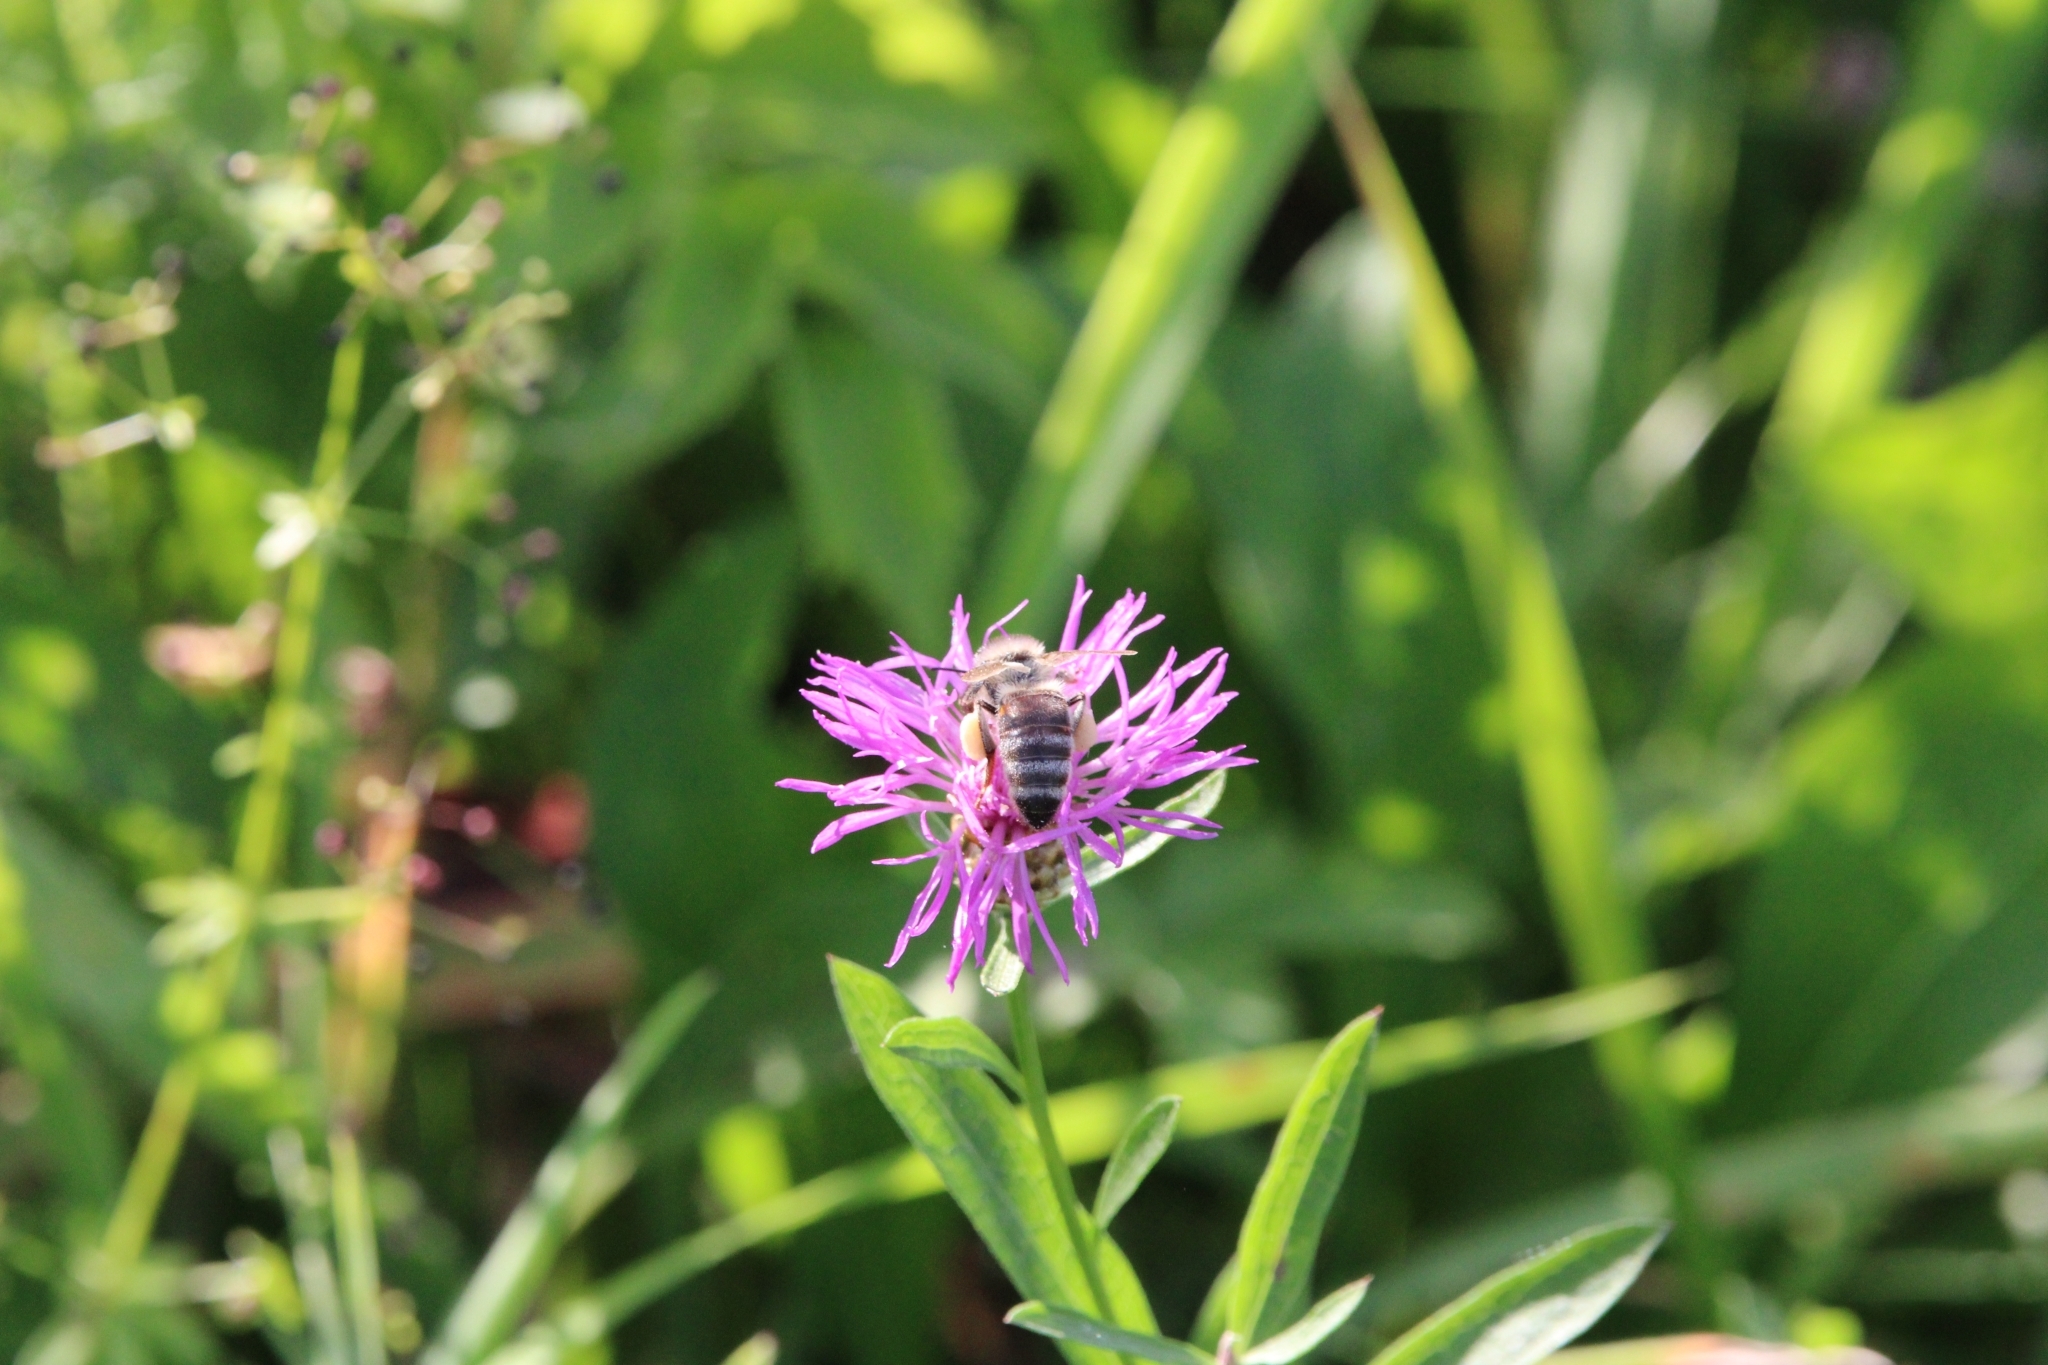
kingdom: Animalia
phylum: Arthropoda
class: Insecta
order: Hymenoptera
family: Apidae
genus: Apis
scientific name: Apis mellifera
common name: Honey bee
